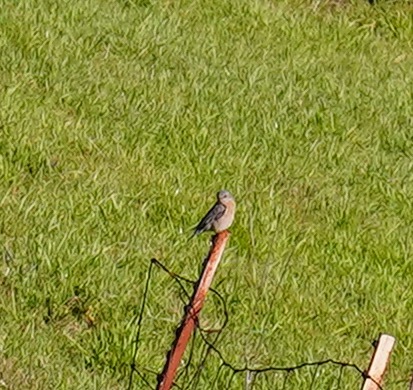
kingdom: Animalia
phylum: Chordata
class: Aves
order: Passeriformes
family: Turdidae
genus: Sialia
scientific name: Sialia mexicana
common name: Western bluebird
